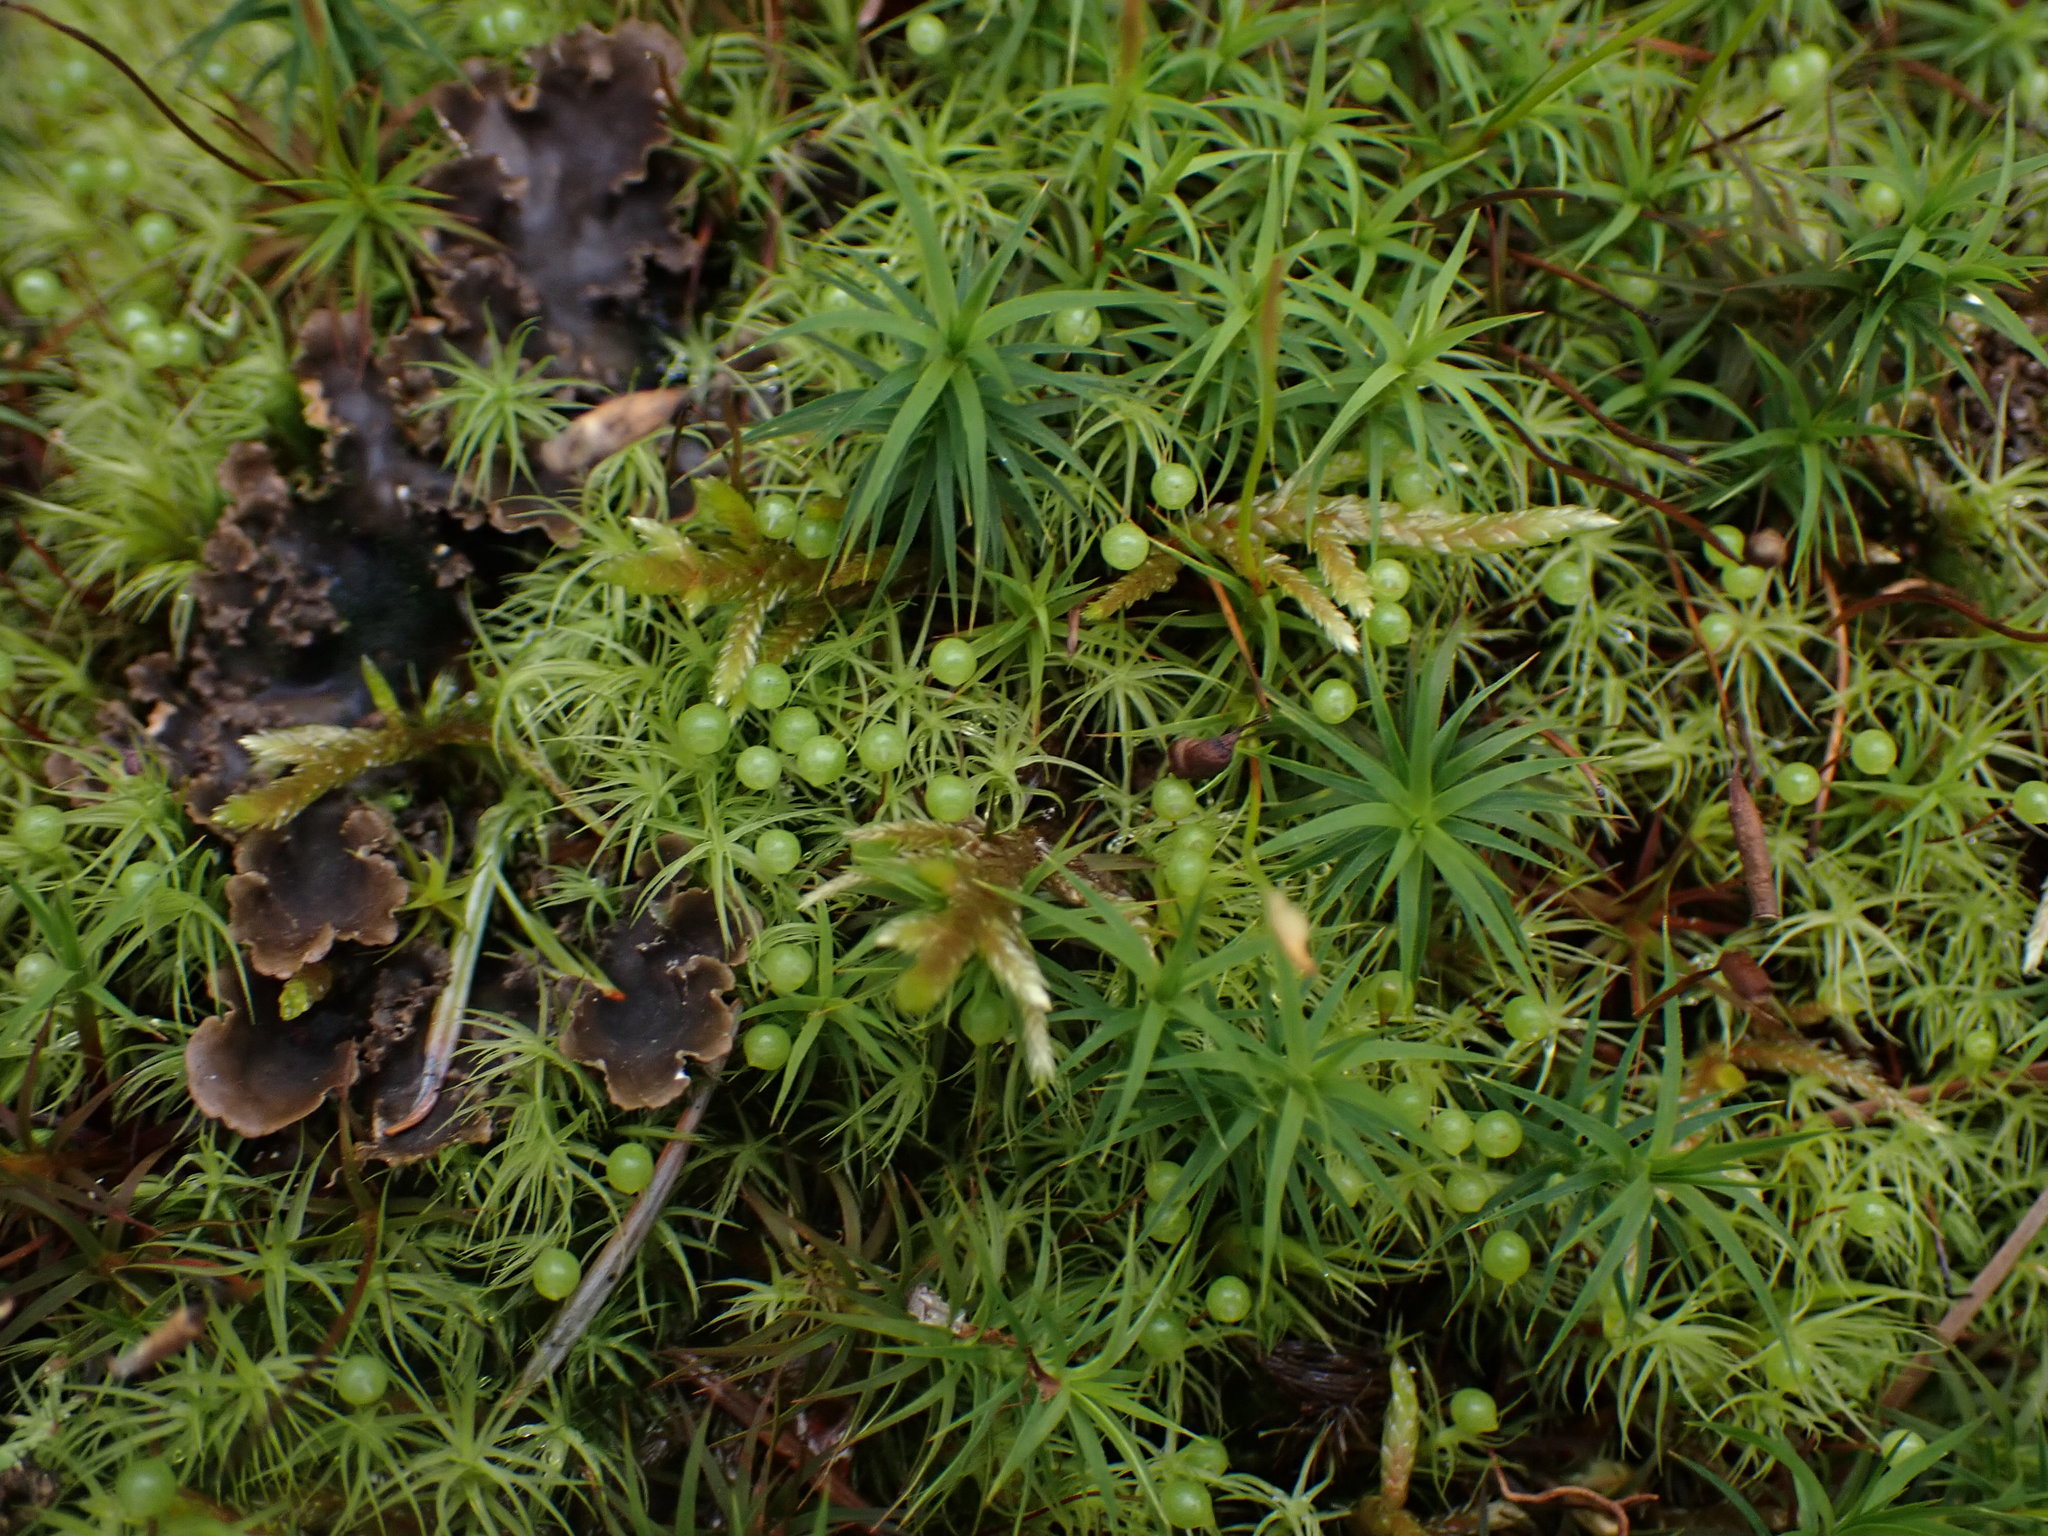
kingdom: Plantae
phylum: Bryophyta
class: Bryopsida
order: Bartramiales
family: Bartramiaceae
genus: Bartramia
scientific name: Bartramia ithyphylla
